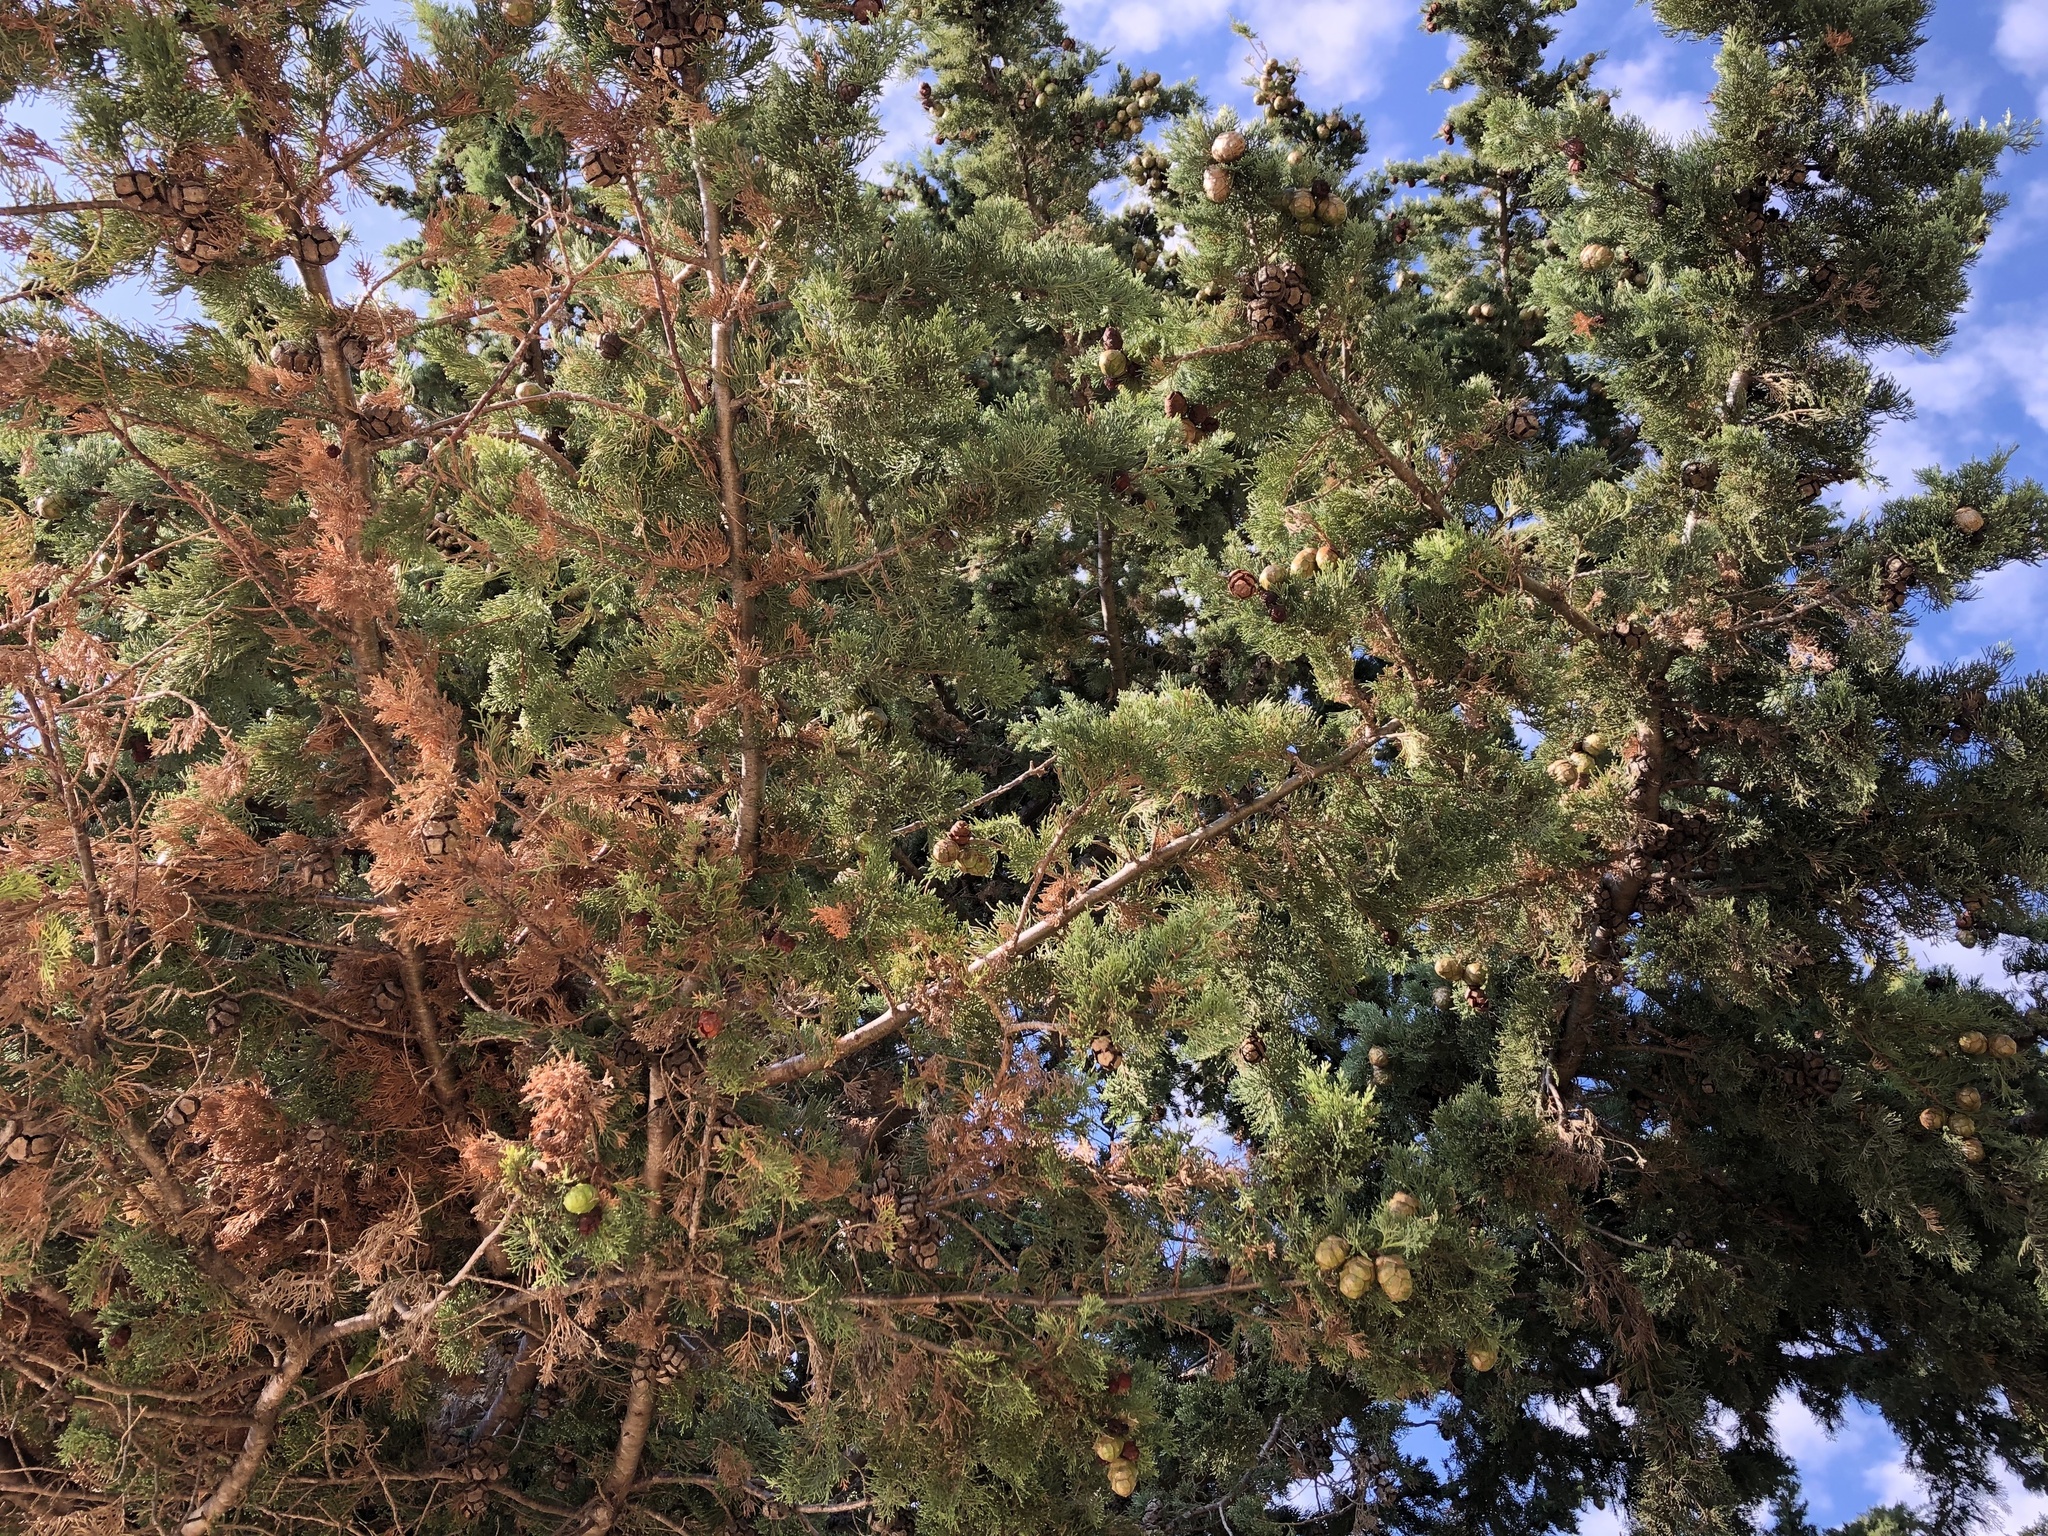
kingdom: Plantae
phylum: Tracheophyta
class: Pinopsida
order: Pinales
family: Cupressaceae
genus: Cupressus
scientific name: Cupressus sempervirens
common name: Italian cypress
